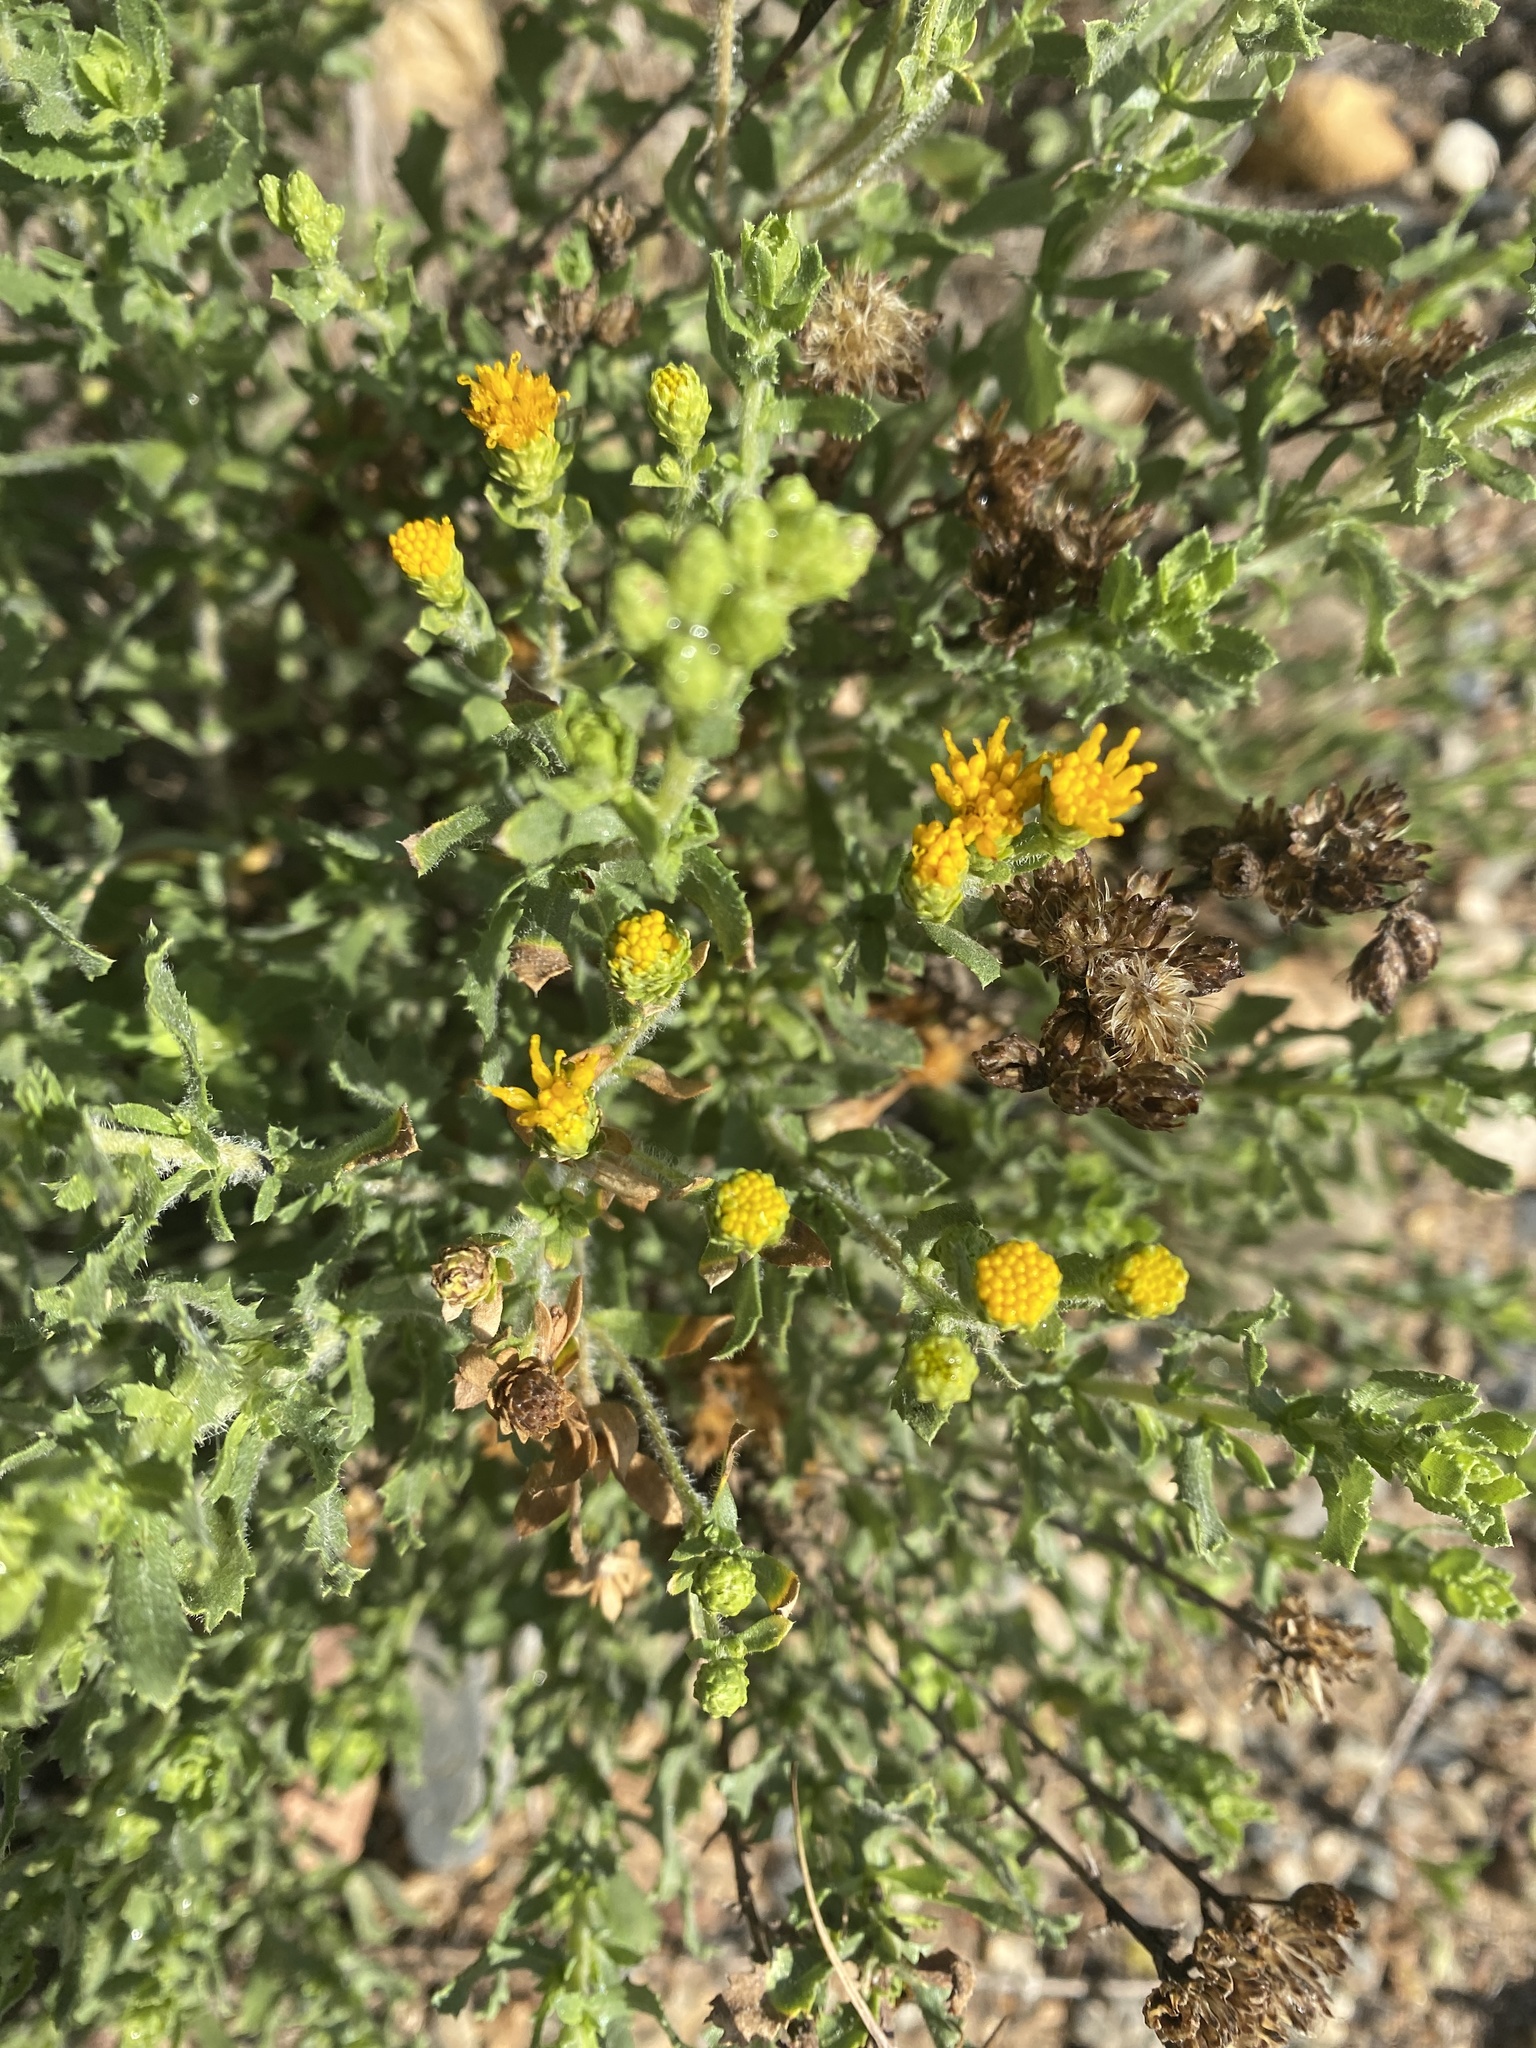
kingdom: Plantae
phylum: Tracheophyta
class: Magnoliopsida
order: Asterales
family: Asteraceae
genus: Isocoma
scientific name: Isocoma menziesii
